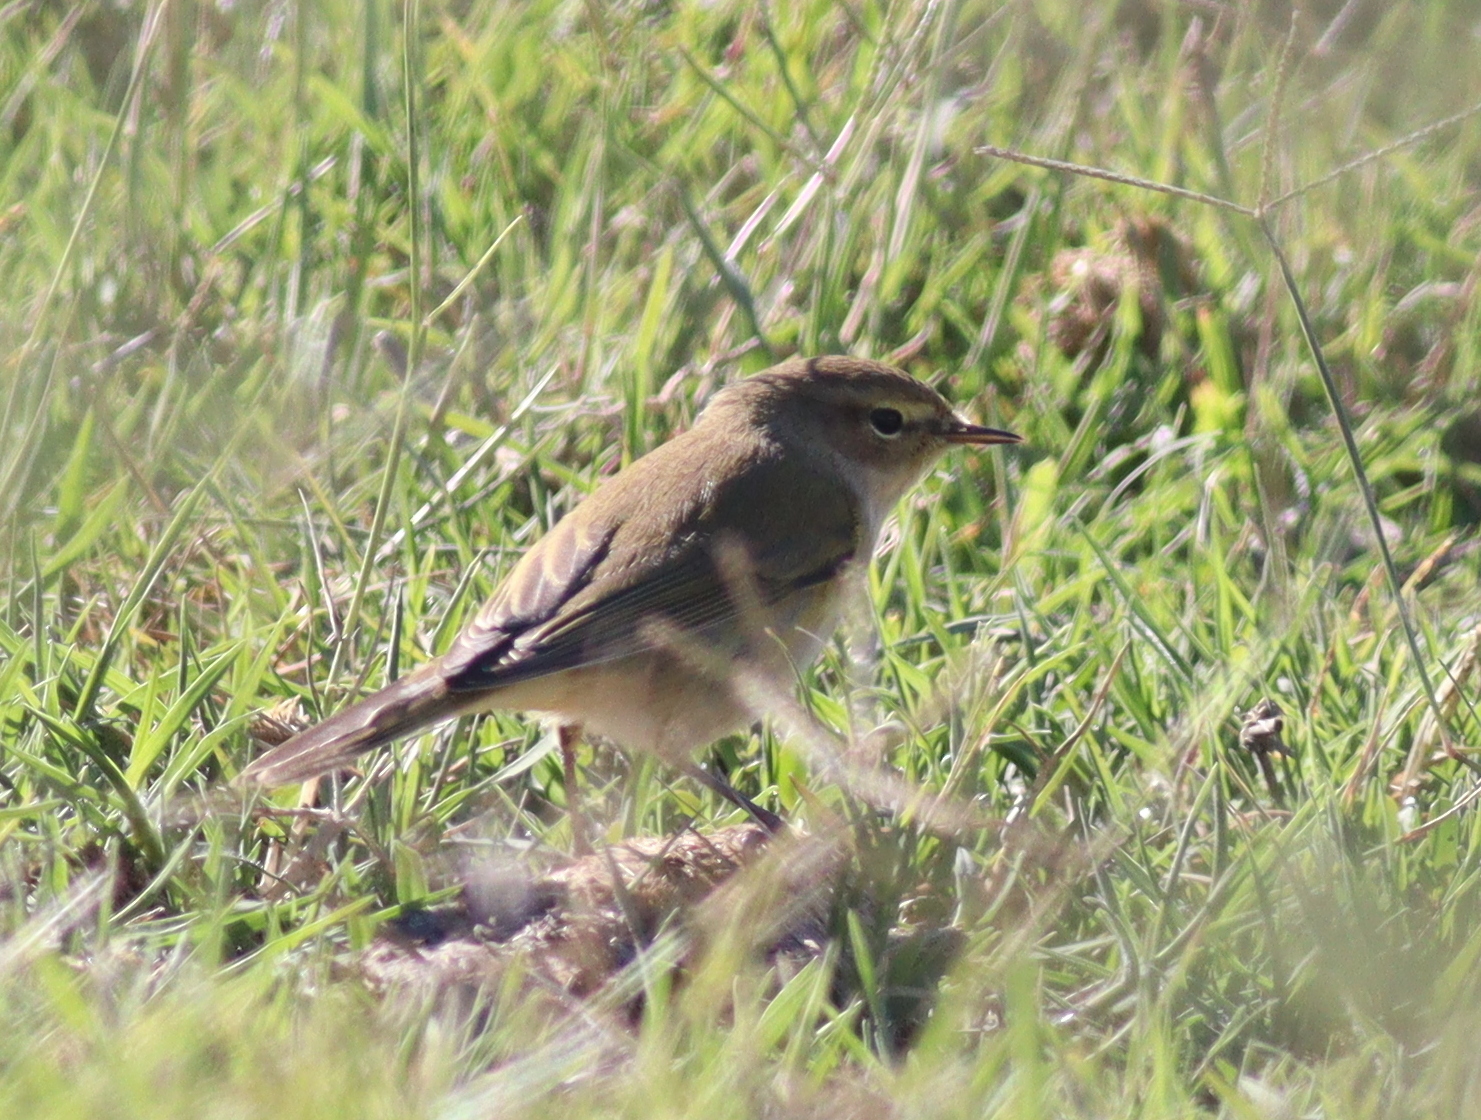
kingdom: Animalia
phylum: Chordata
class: Aves
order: Passeriformes
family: Phylloscopidae
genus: Phylloscopus
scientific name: Phylloscopus collybita
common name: Common chiffchaff
